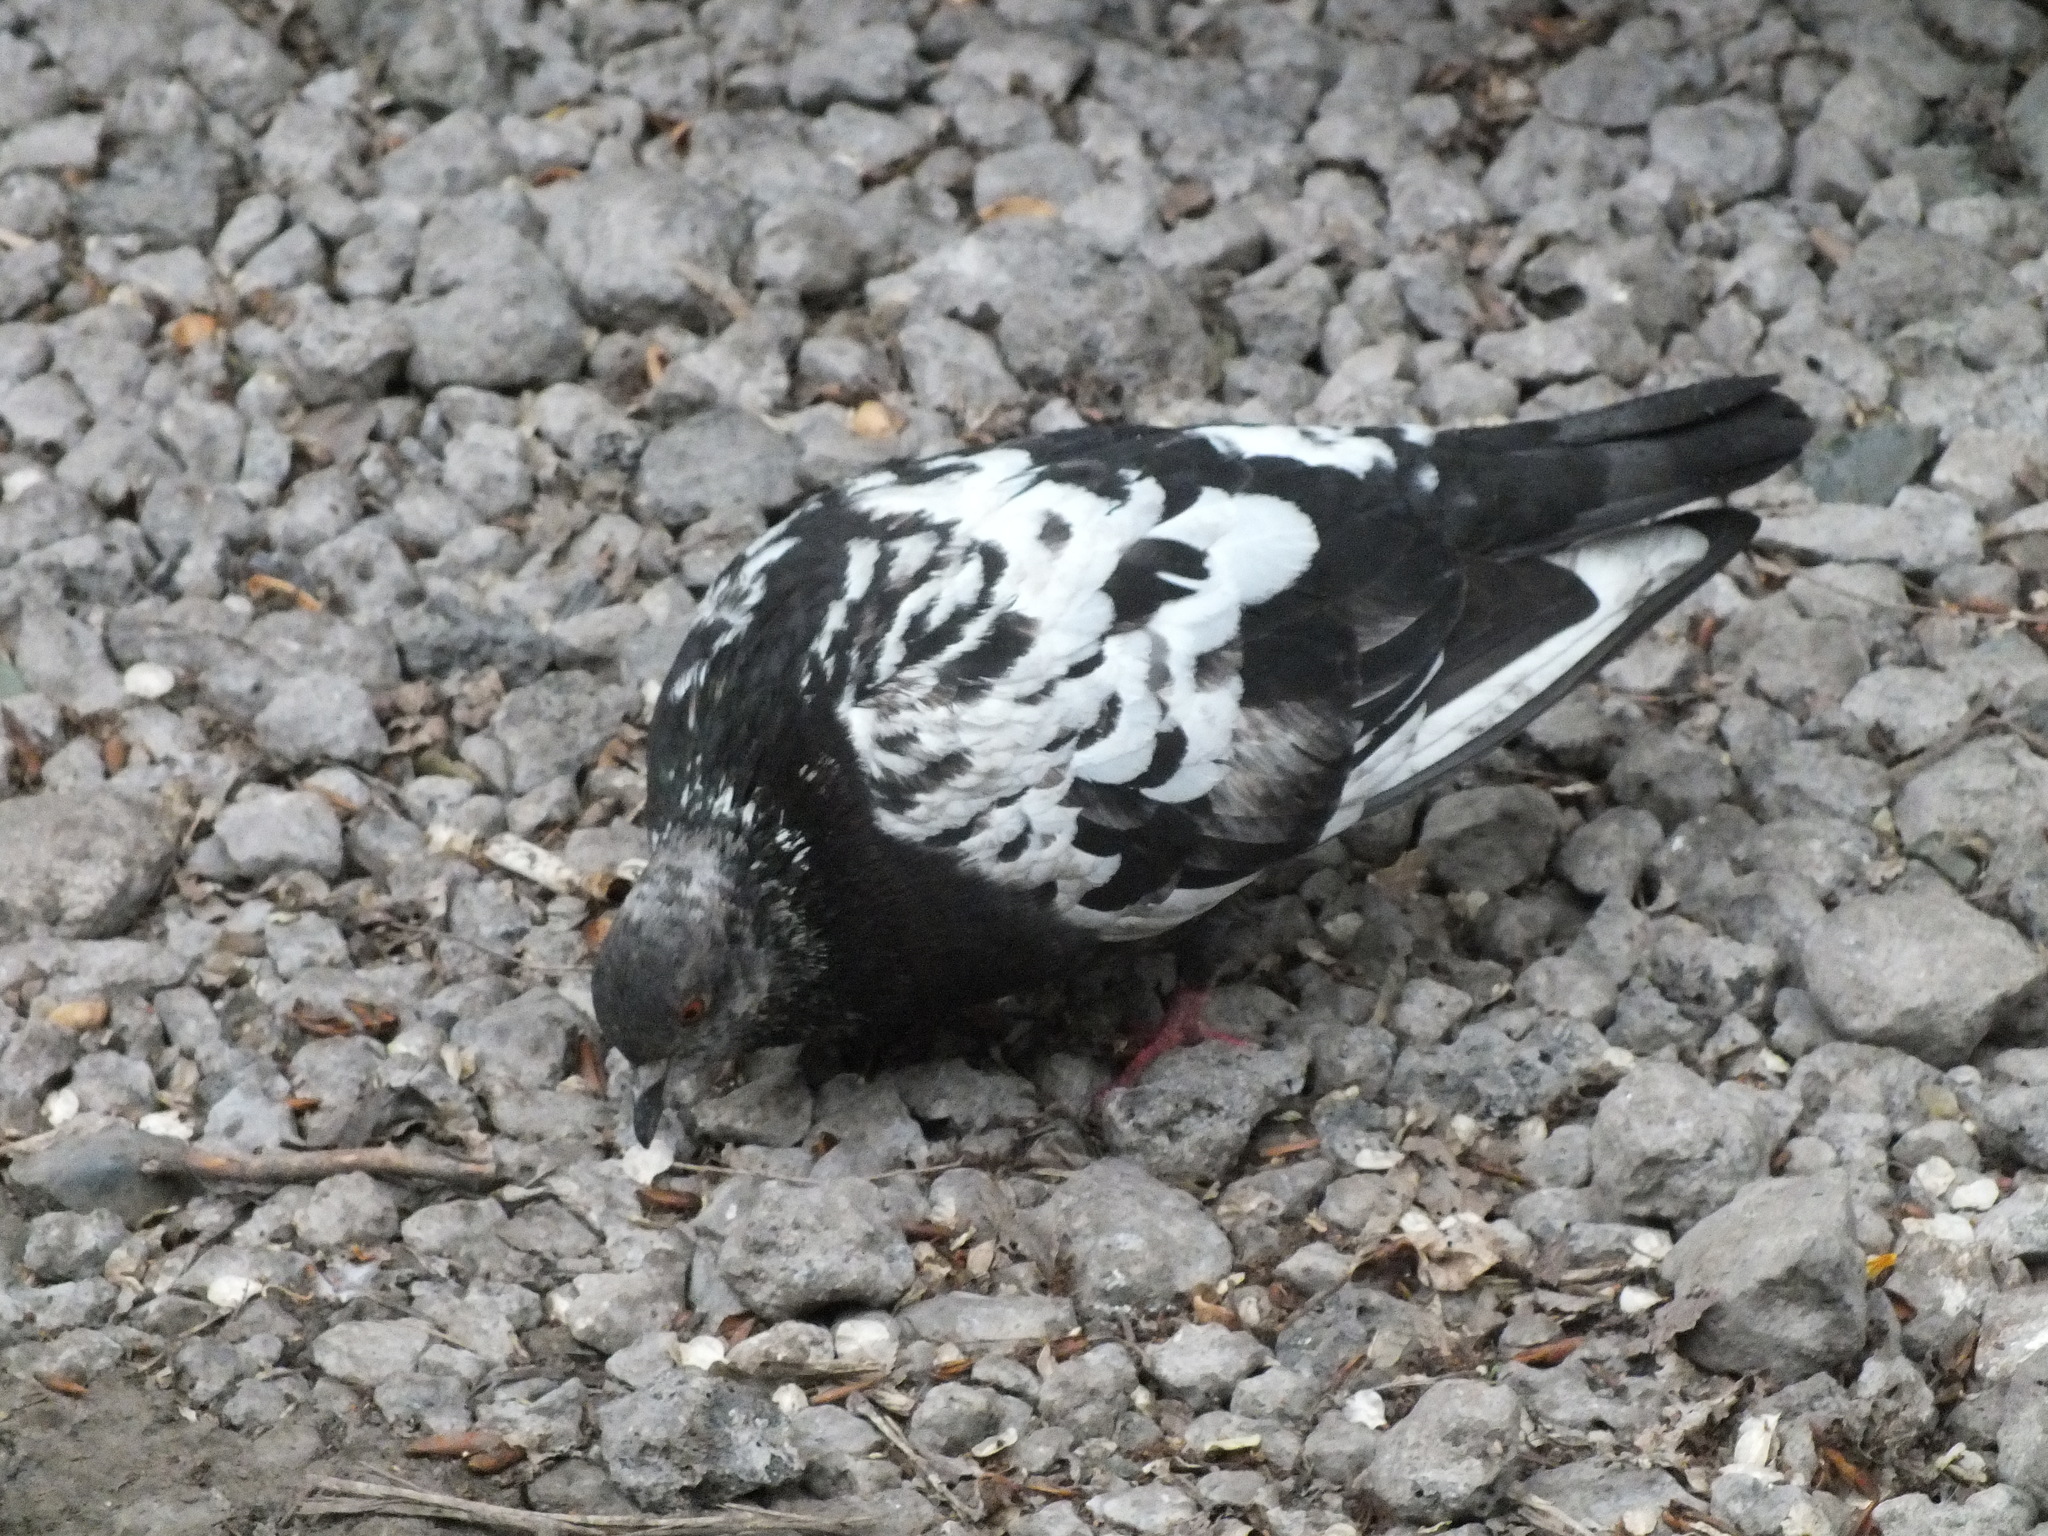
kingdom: Animalia
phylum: Chordata
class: Aves
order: Columbiformes
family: Columbidae
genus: Columba
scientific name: Columba livia
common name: Rock pigeon
